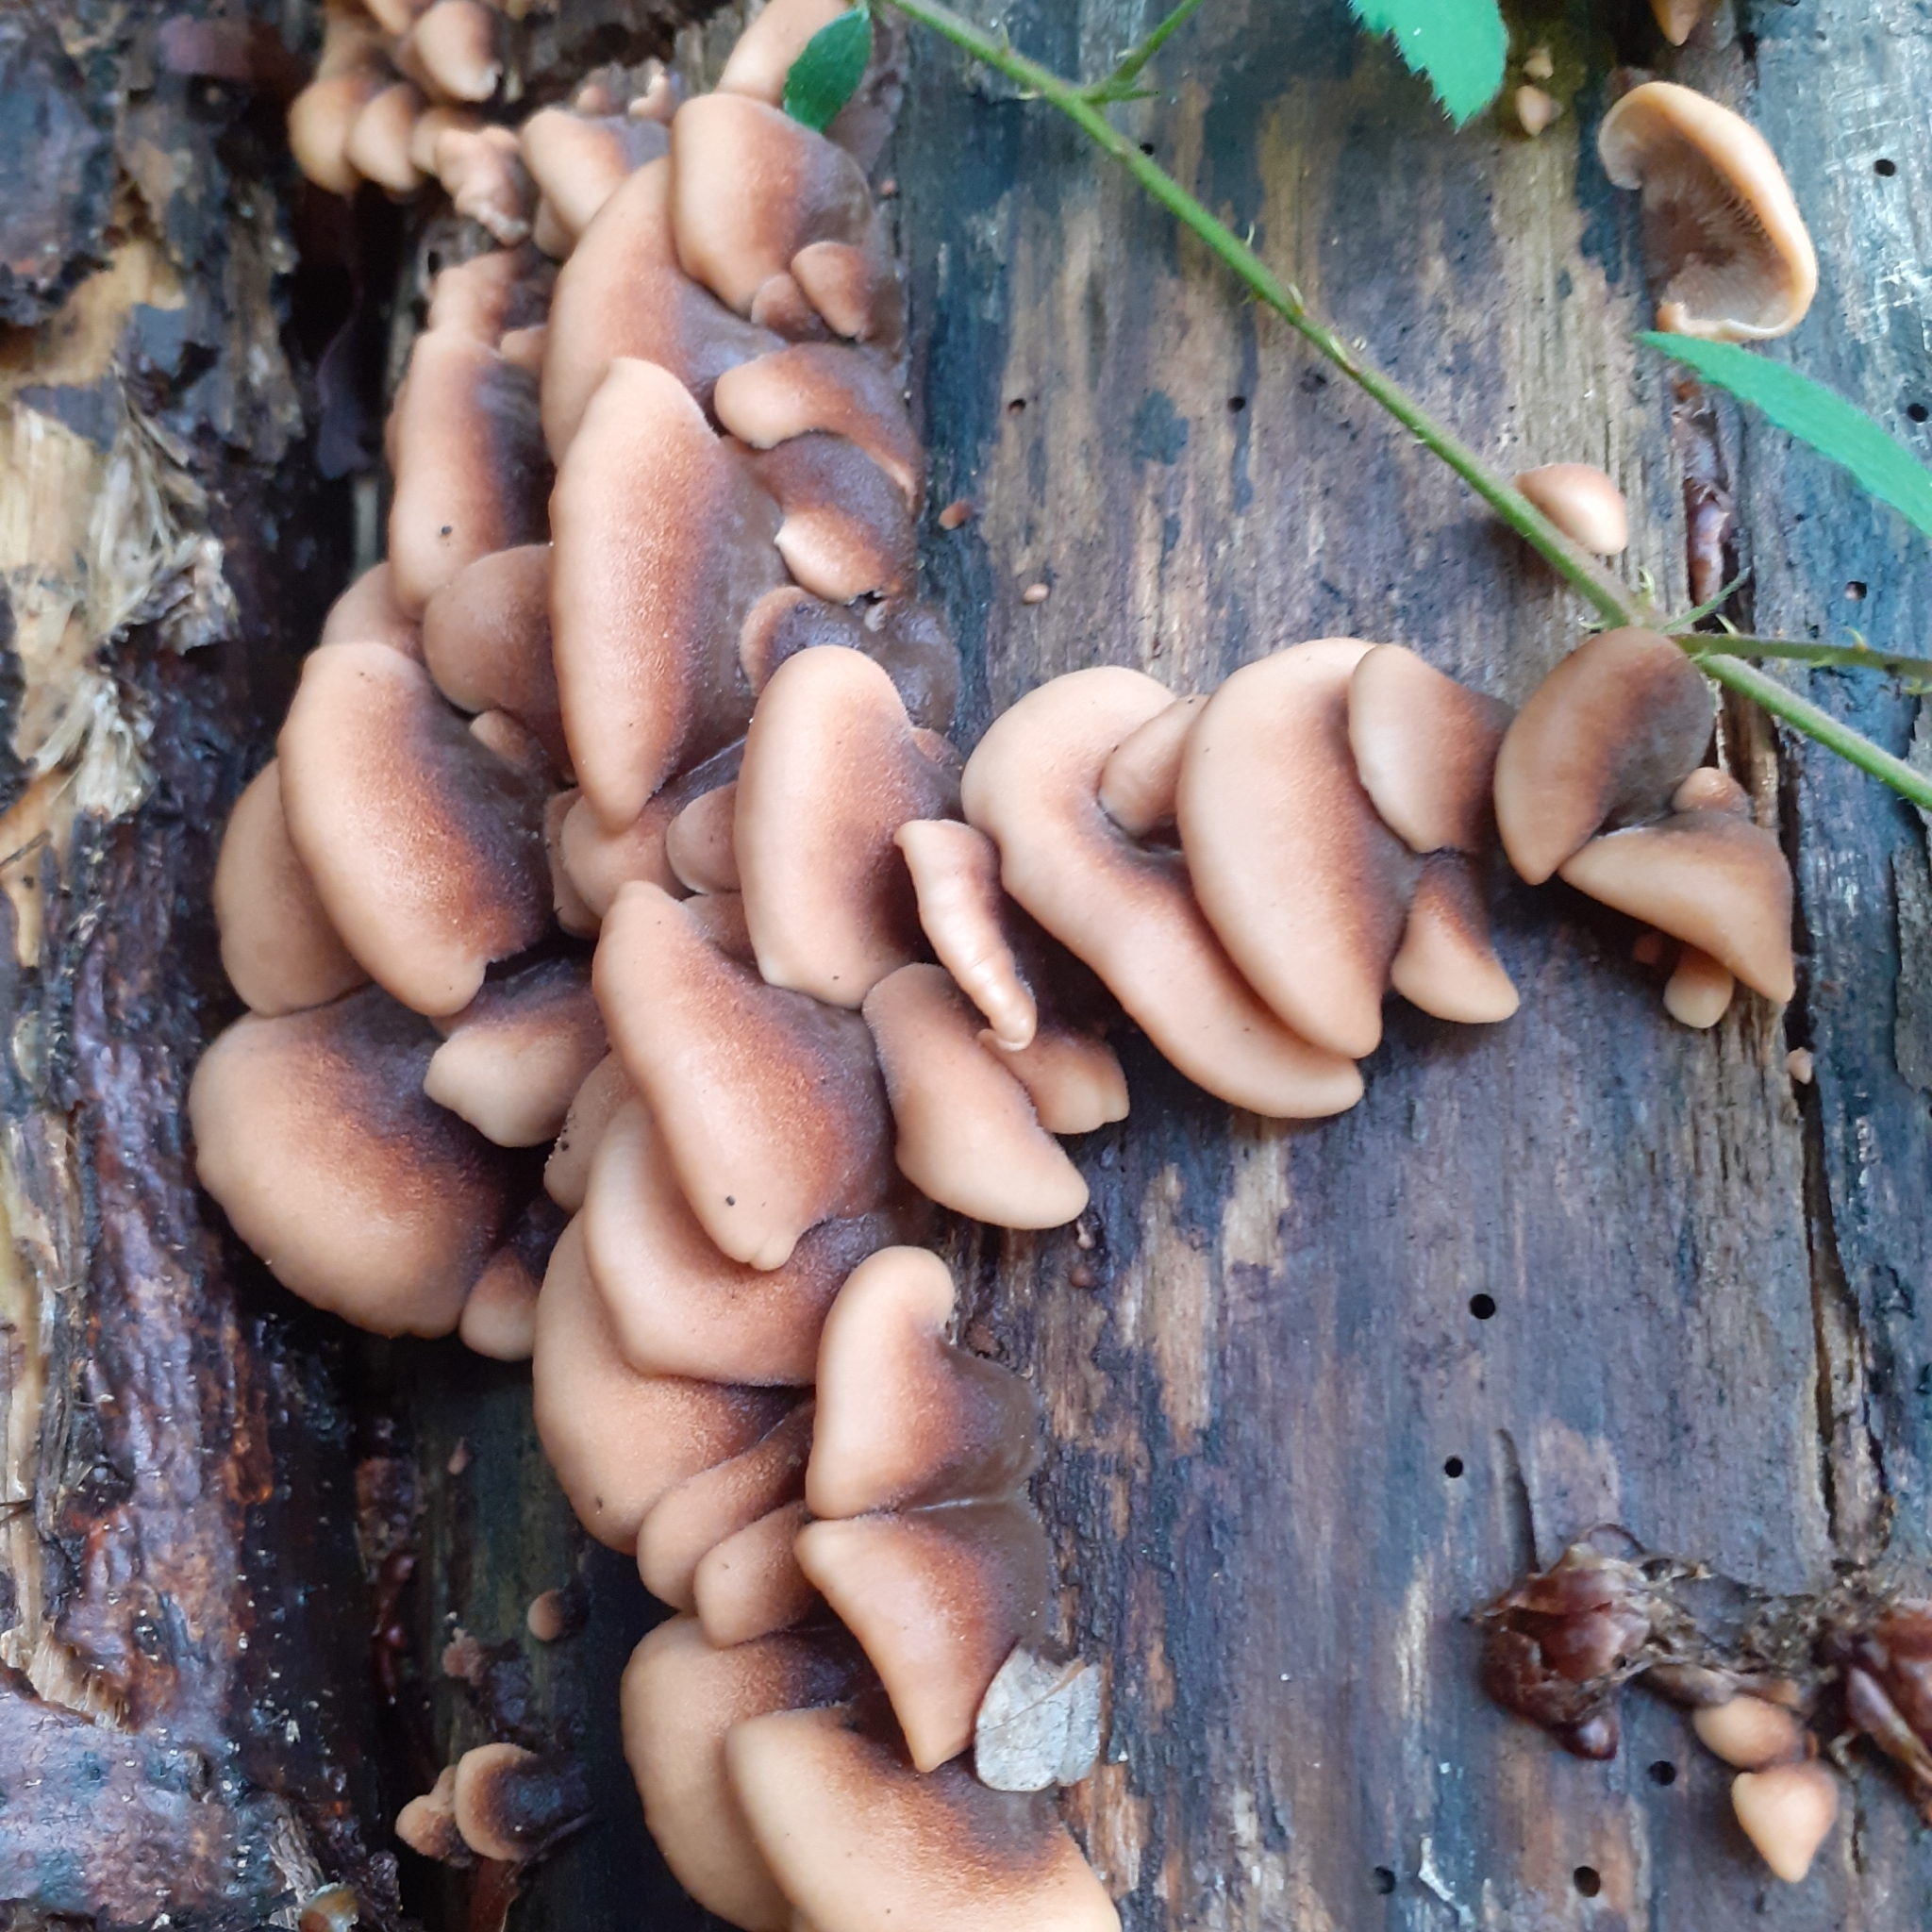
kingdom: Fungi
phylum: Basidiomycota
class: Agaricomycetes
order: Russulales
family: Auriscalpiaceae
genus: Lentinellus
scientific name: Lentinellus ursinus
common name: Bear lentinus
